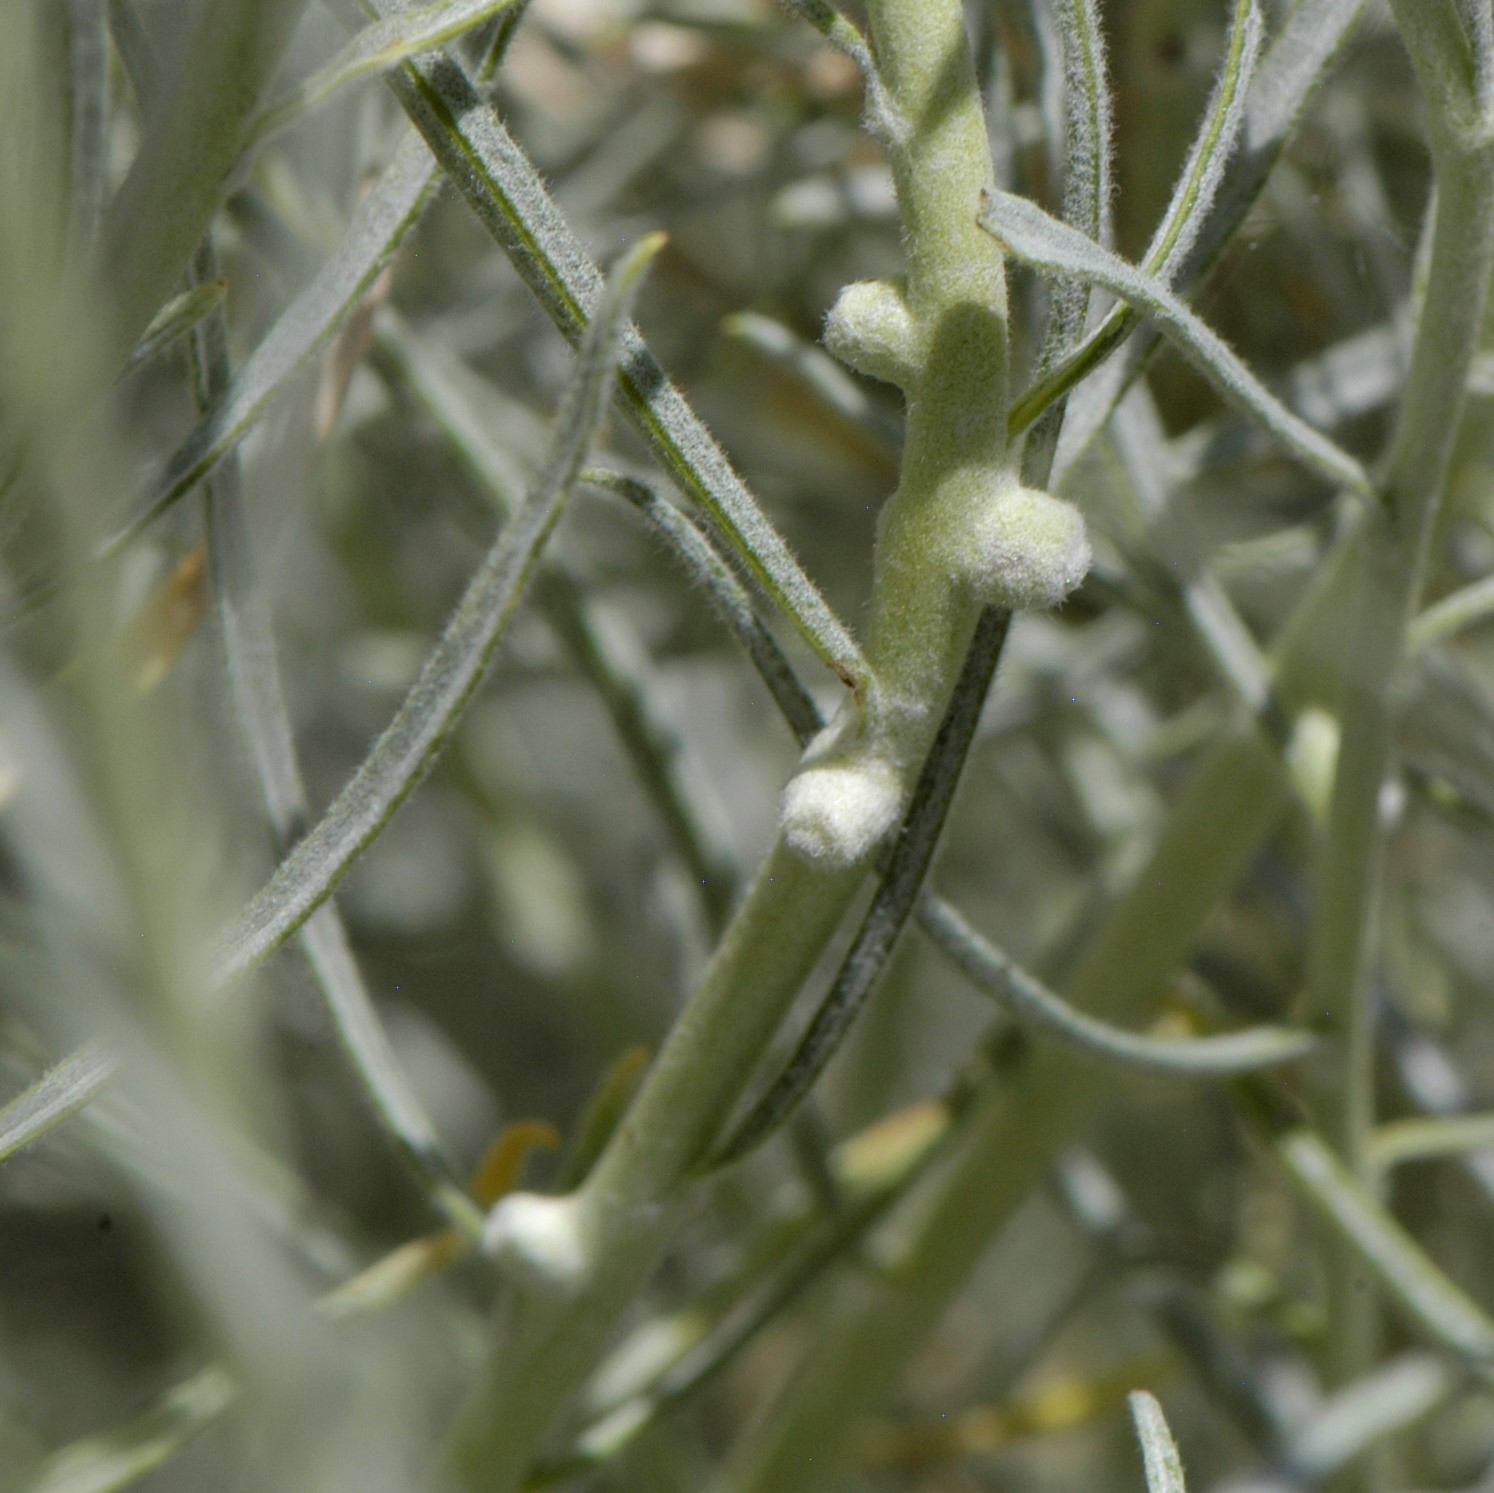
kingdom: Animalia
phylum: Arthropoda
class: Insecta
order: Diptera
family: Cecidomyiidae
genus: Rhopalomyia
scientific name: Rhopalomyia chrysothamni
